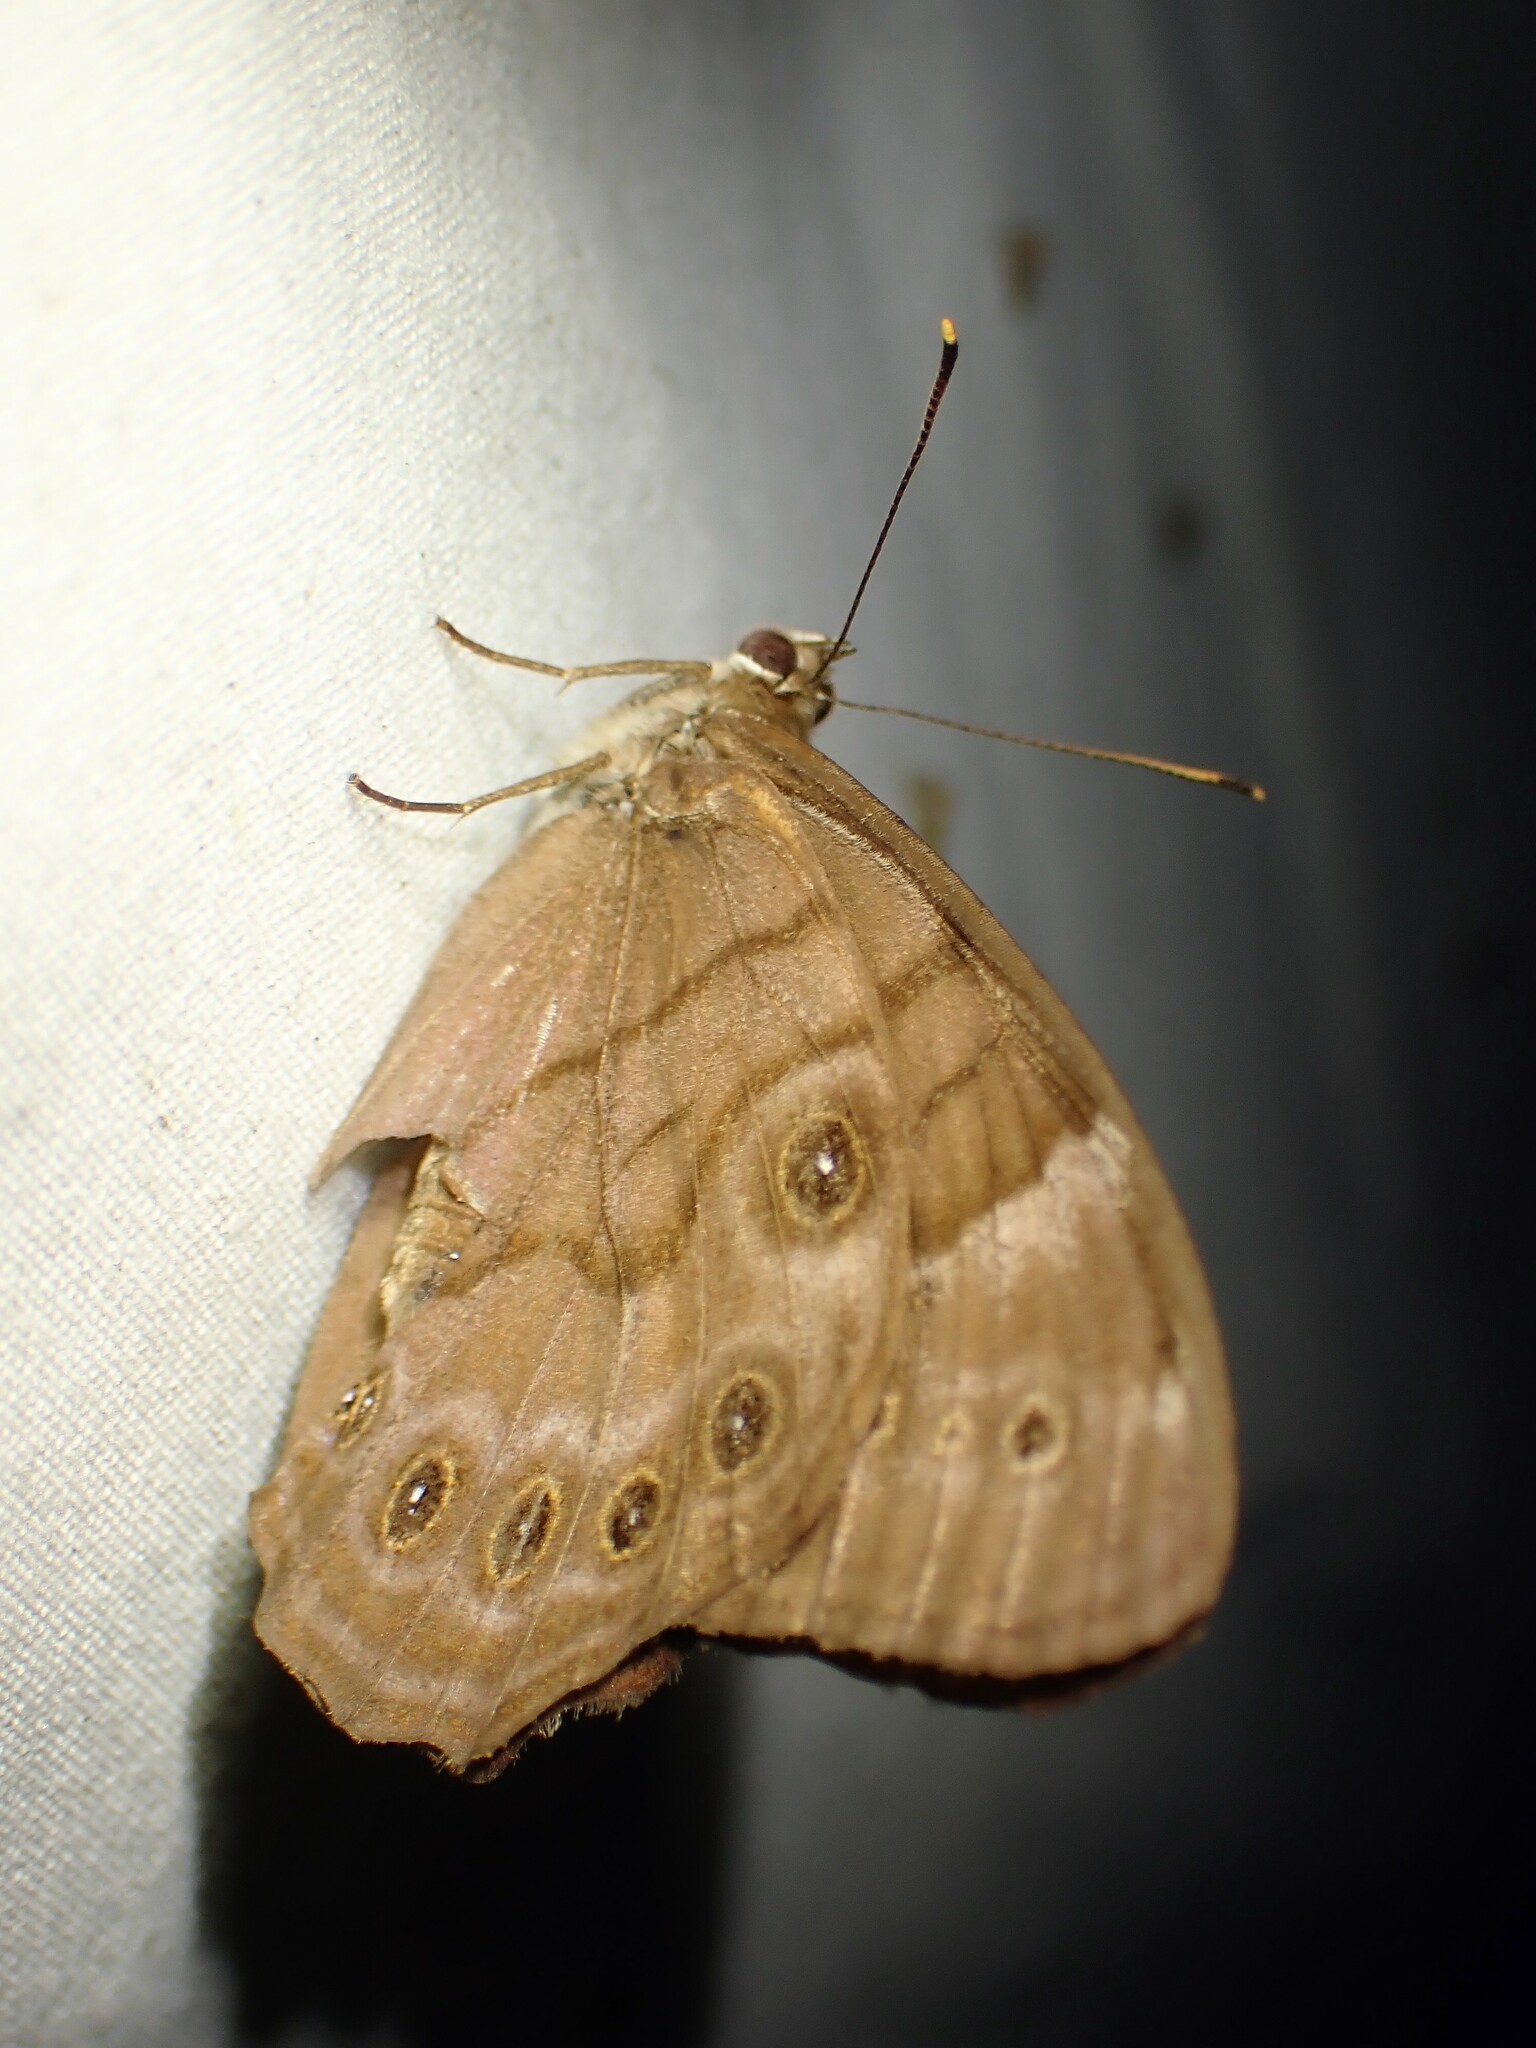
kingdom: Animalia
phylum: Arthropoda
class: Insecta
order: Lepidoptera
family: Nymphalidae
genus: Lethe
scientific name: Lethe anthedon
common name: Northern pearly-eye
